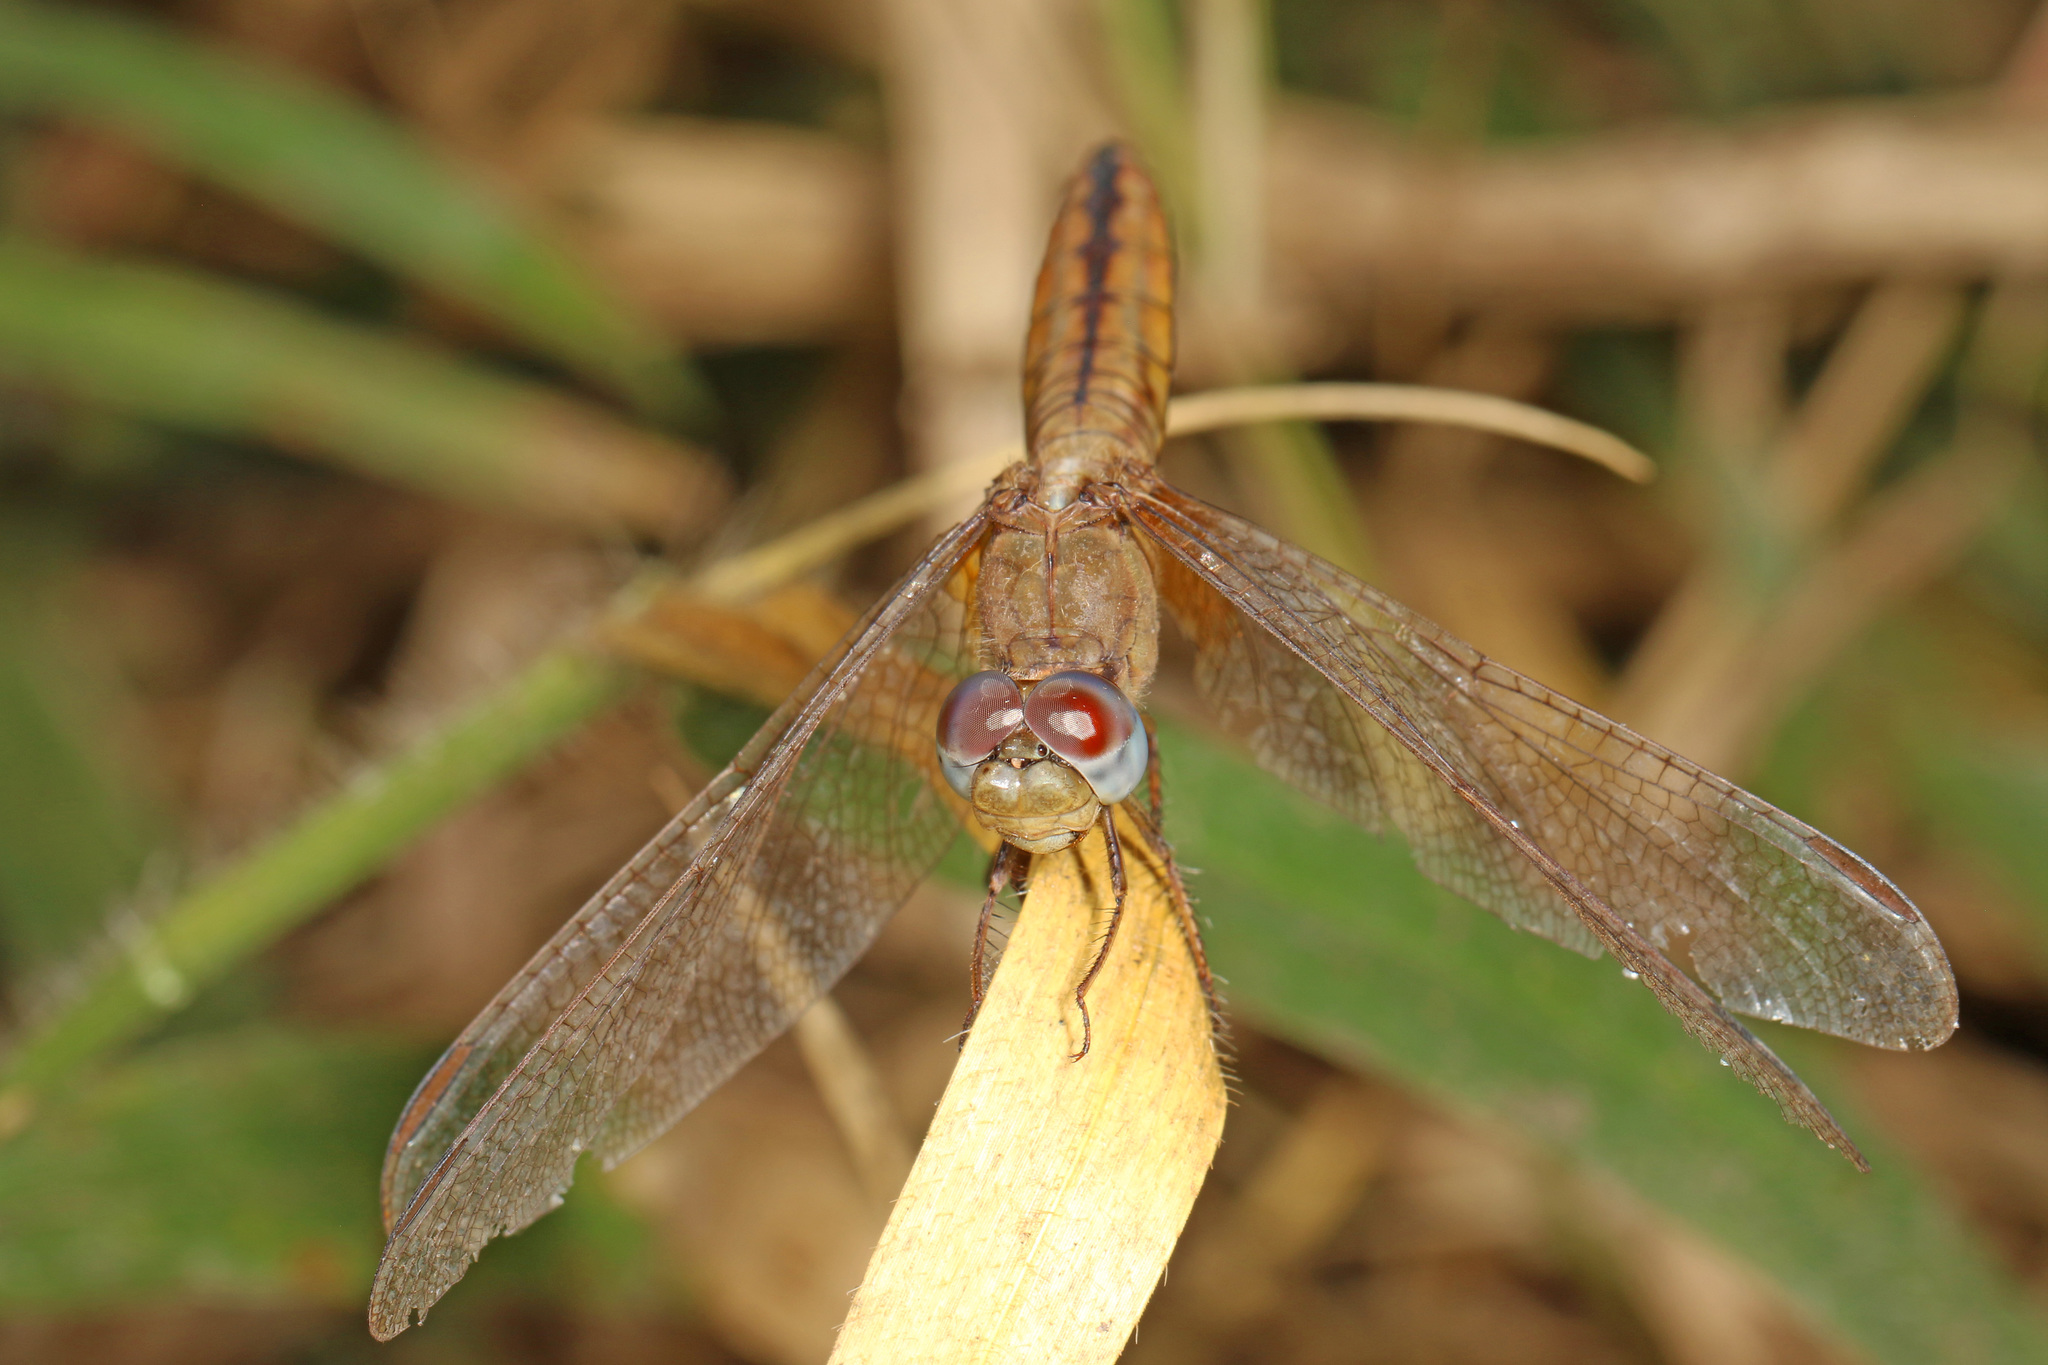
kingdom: Animalia
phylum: Arthropoda
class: Insecta
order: Odonata
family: Libellulidae
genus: Crocothemis
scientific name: Crocothemis erythraea
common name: Scarlet dragonfly
